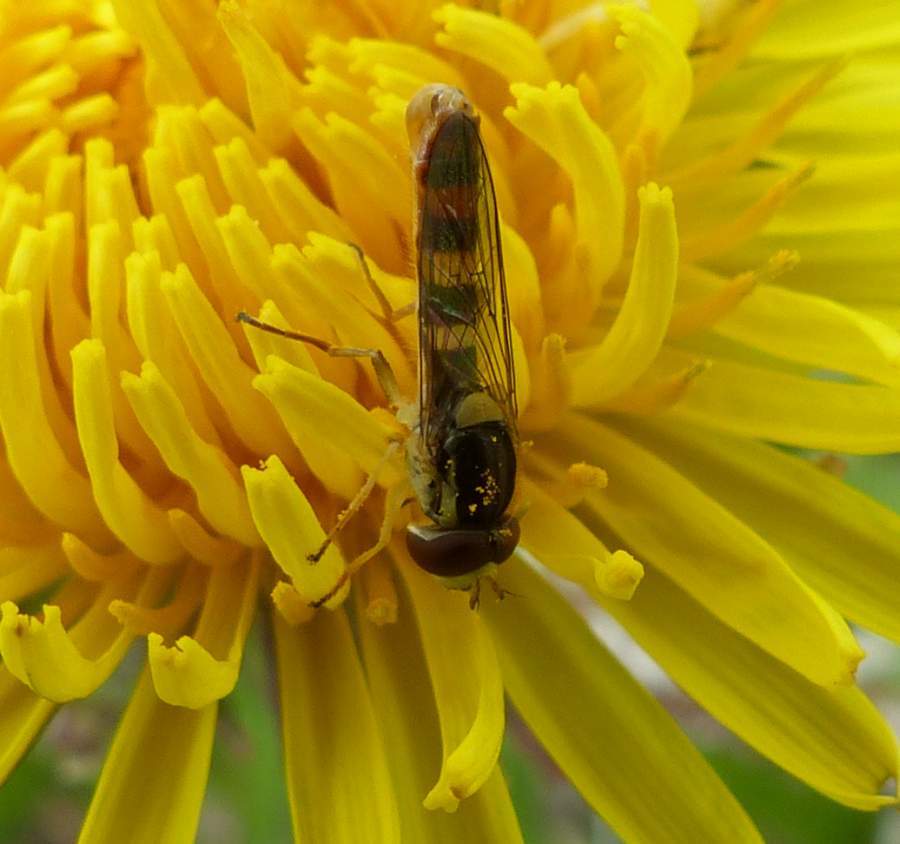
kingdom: Animalia
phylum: Arthropoda
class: Insecta
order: Diptera
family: Syrphidae
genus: Sphaerophoria
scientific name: Sphaerophoria philantha
